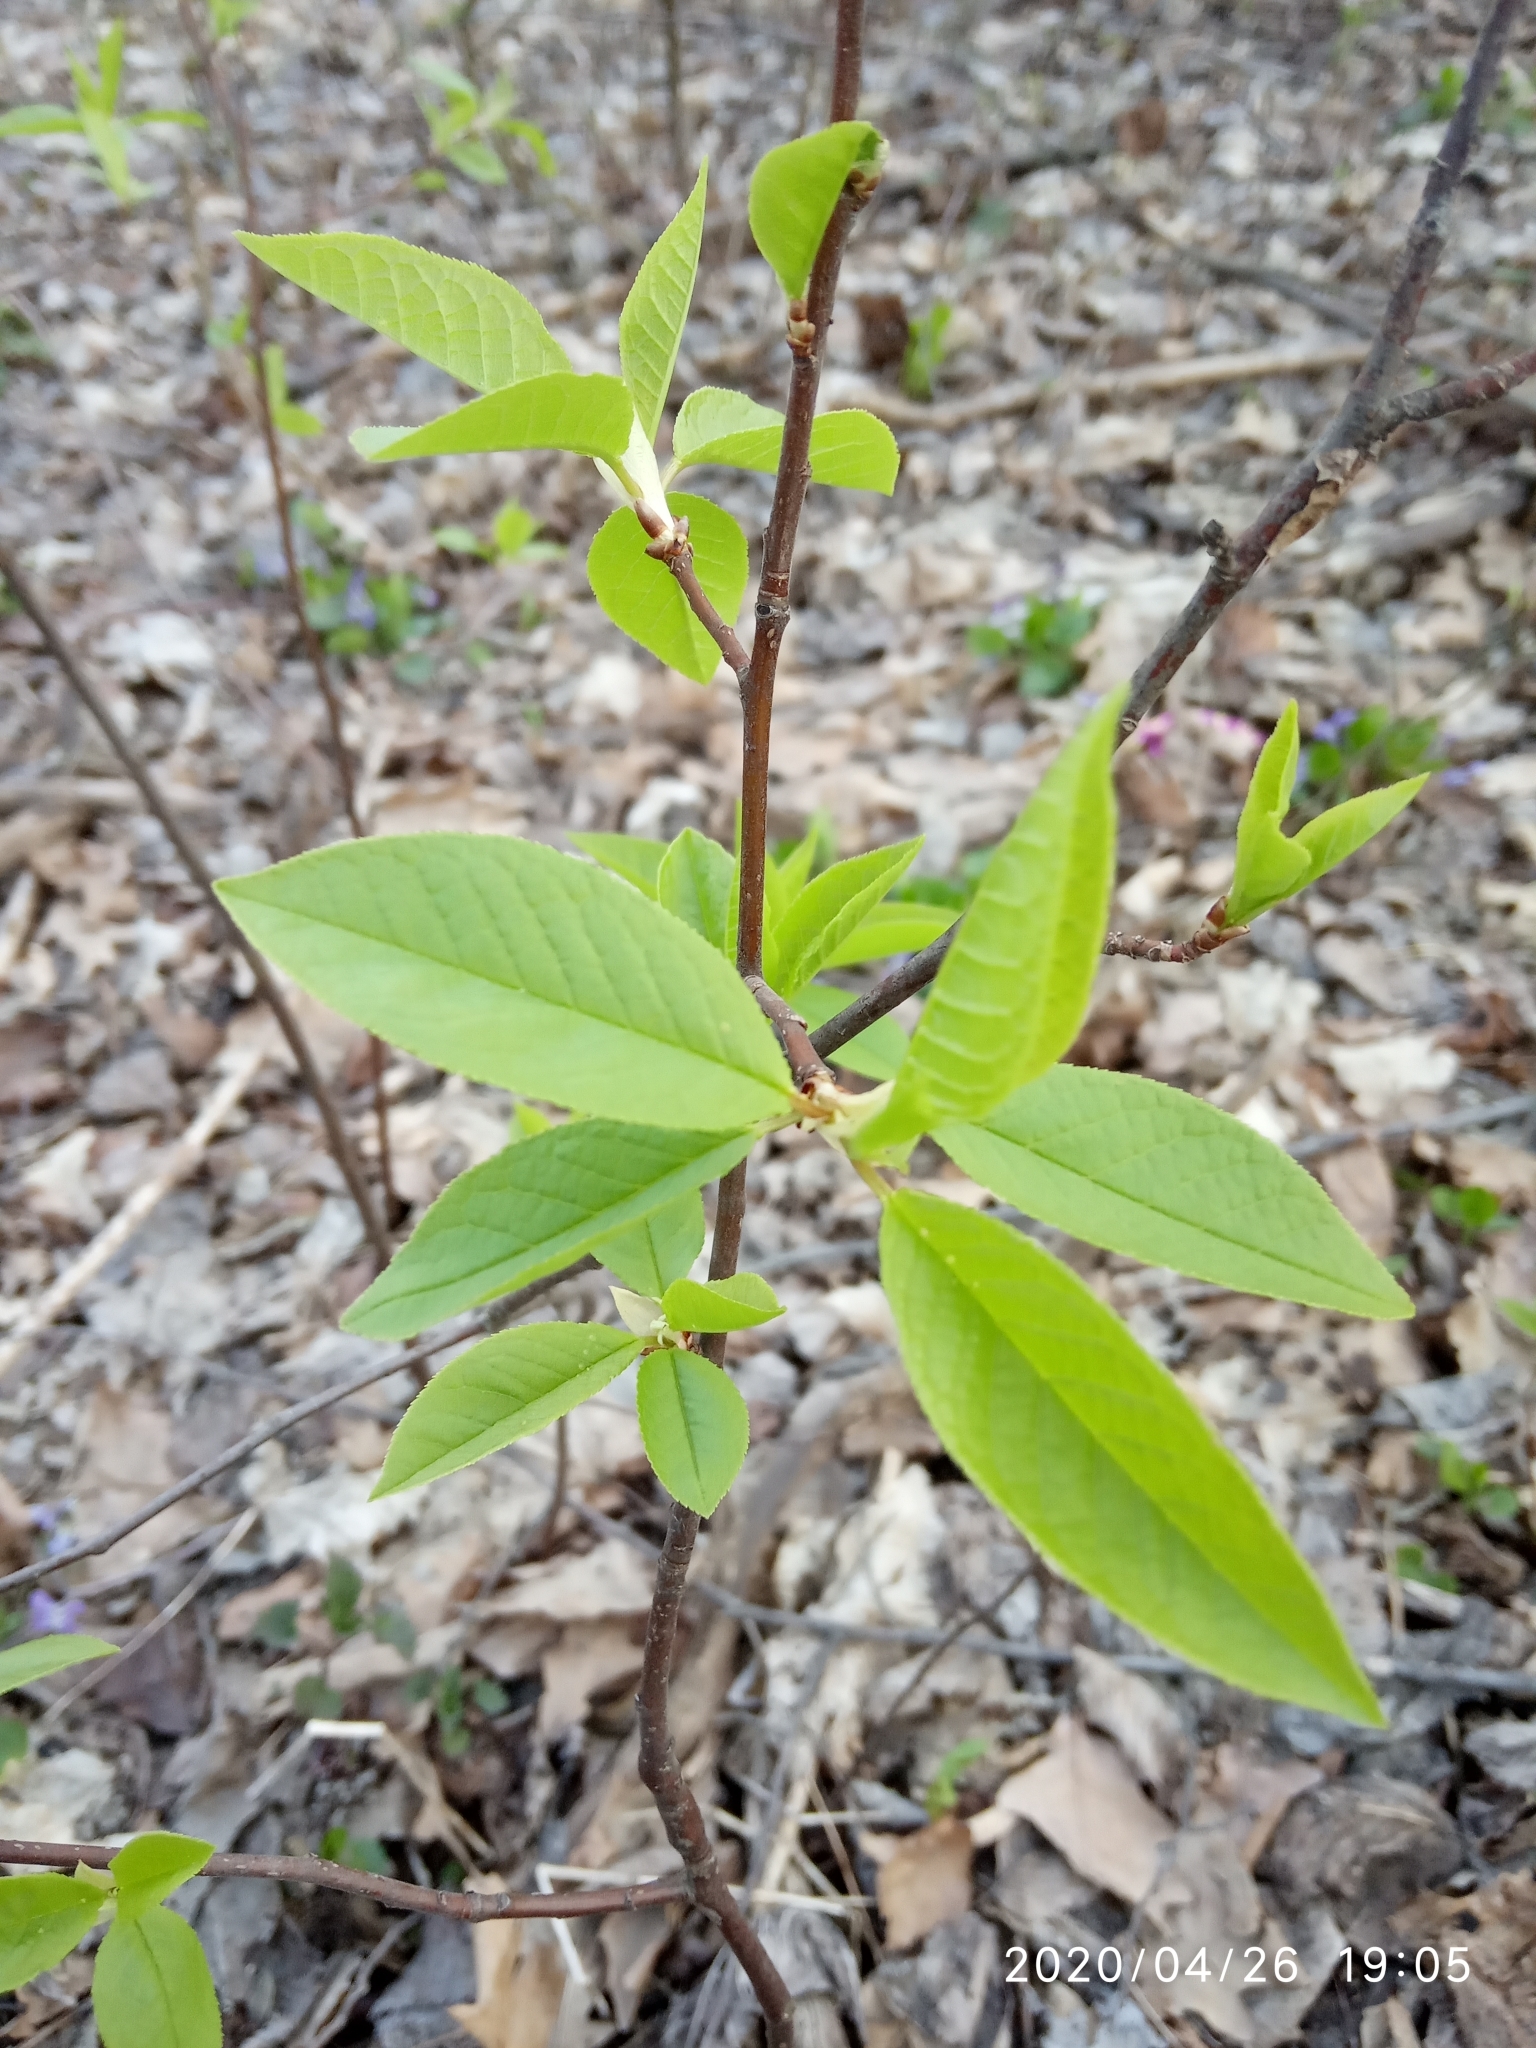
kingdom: Plantae
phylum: Tracheophyta
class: Magnoliopsida
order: Rosales
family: Rosaceae
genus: Prunus
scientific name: Prunus padus
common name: Bird cherry
